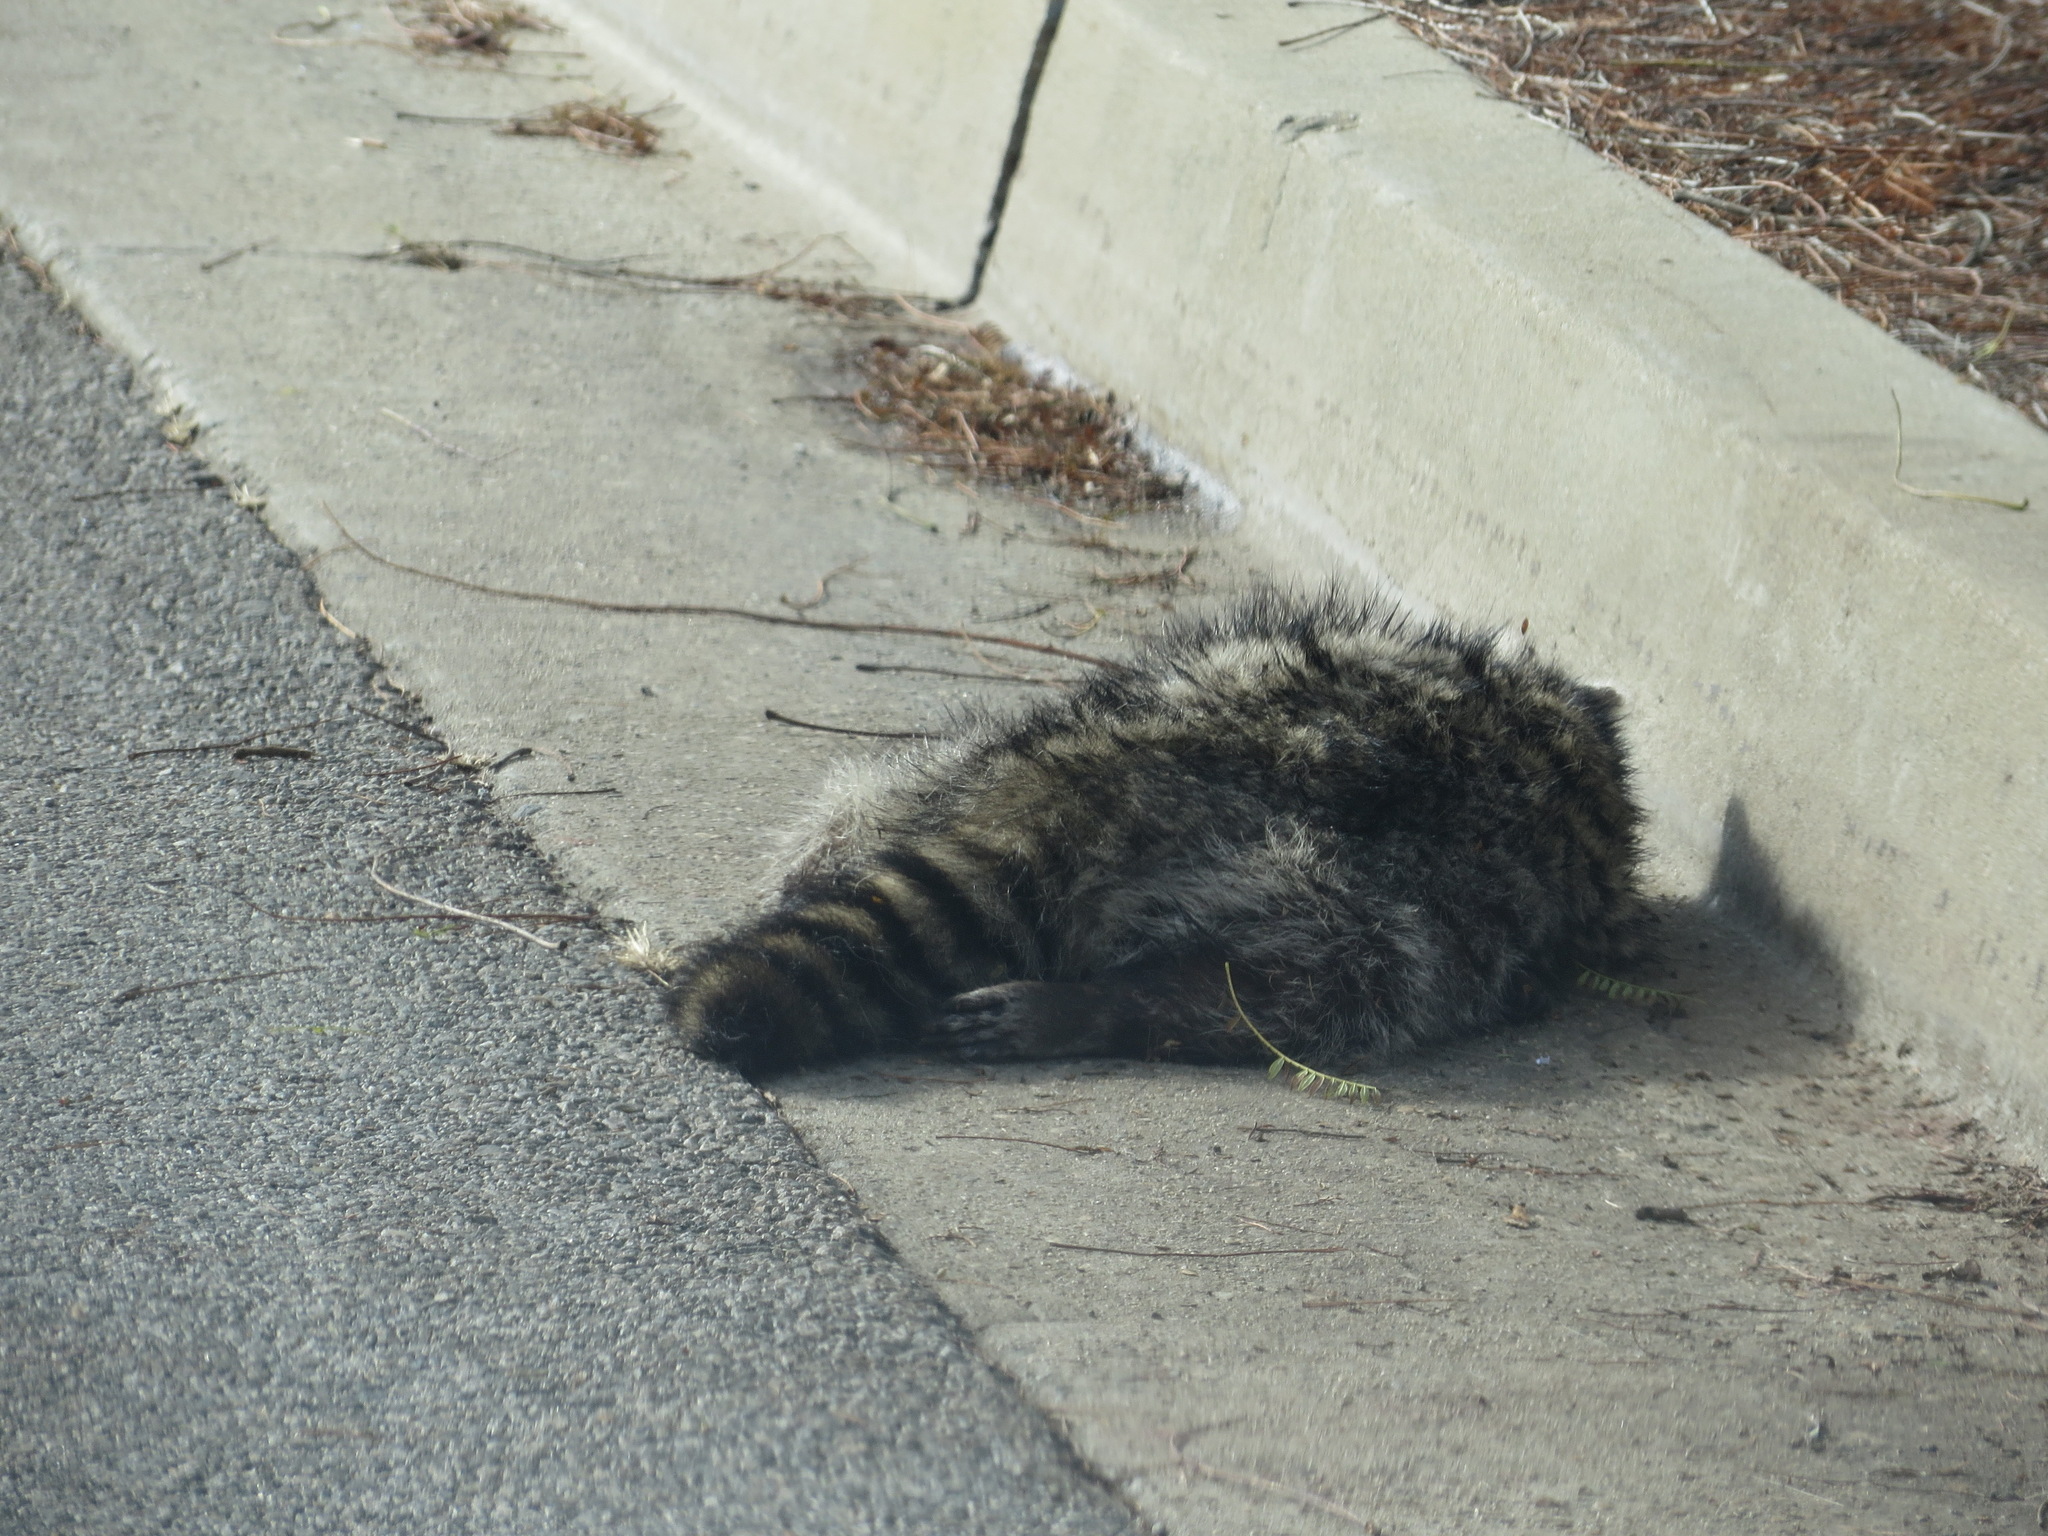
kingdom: Animalia
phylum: Chordata
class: Mammalia
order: Carnivora
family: Procyonidae
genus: Procyon
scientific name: Procyon lotor
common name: Raccoon
